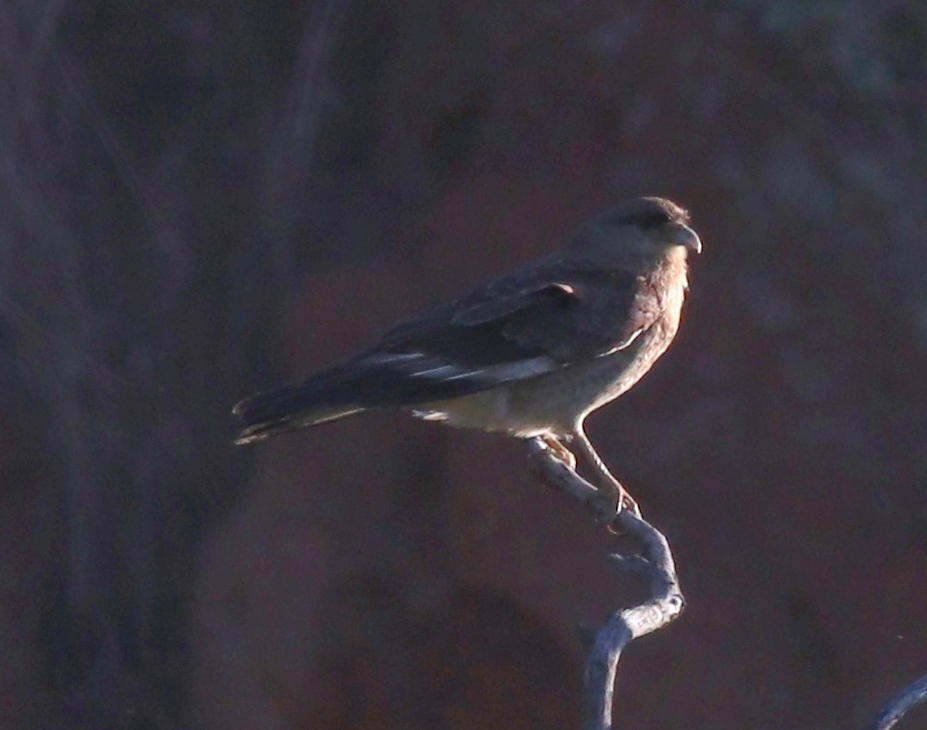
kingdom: Animalia
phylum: Chordata
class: Aves
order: Falconiformes
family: Falconidae
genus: Daptrius
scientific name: Daptrius
